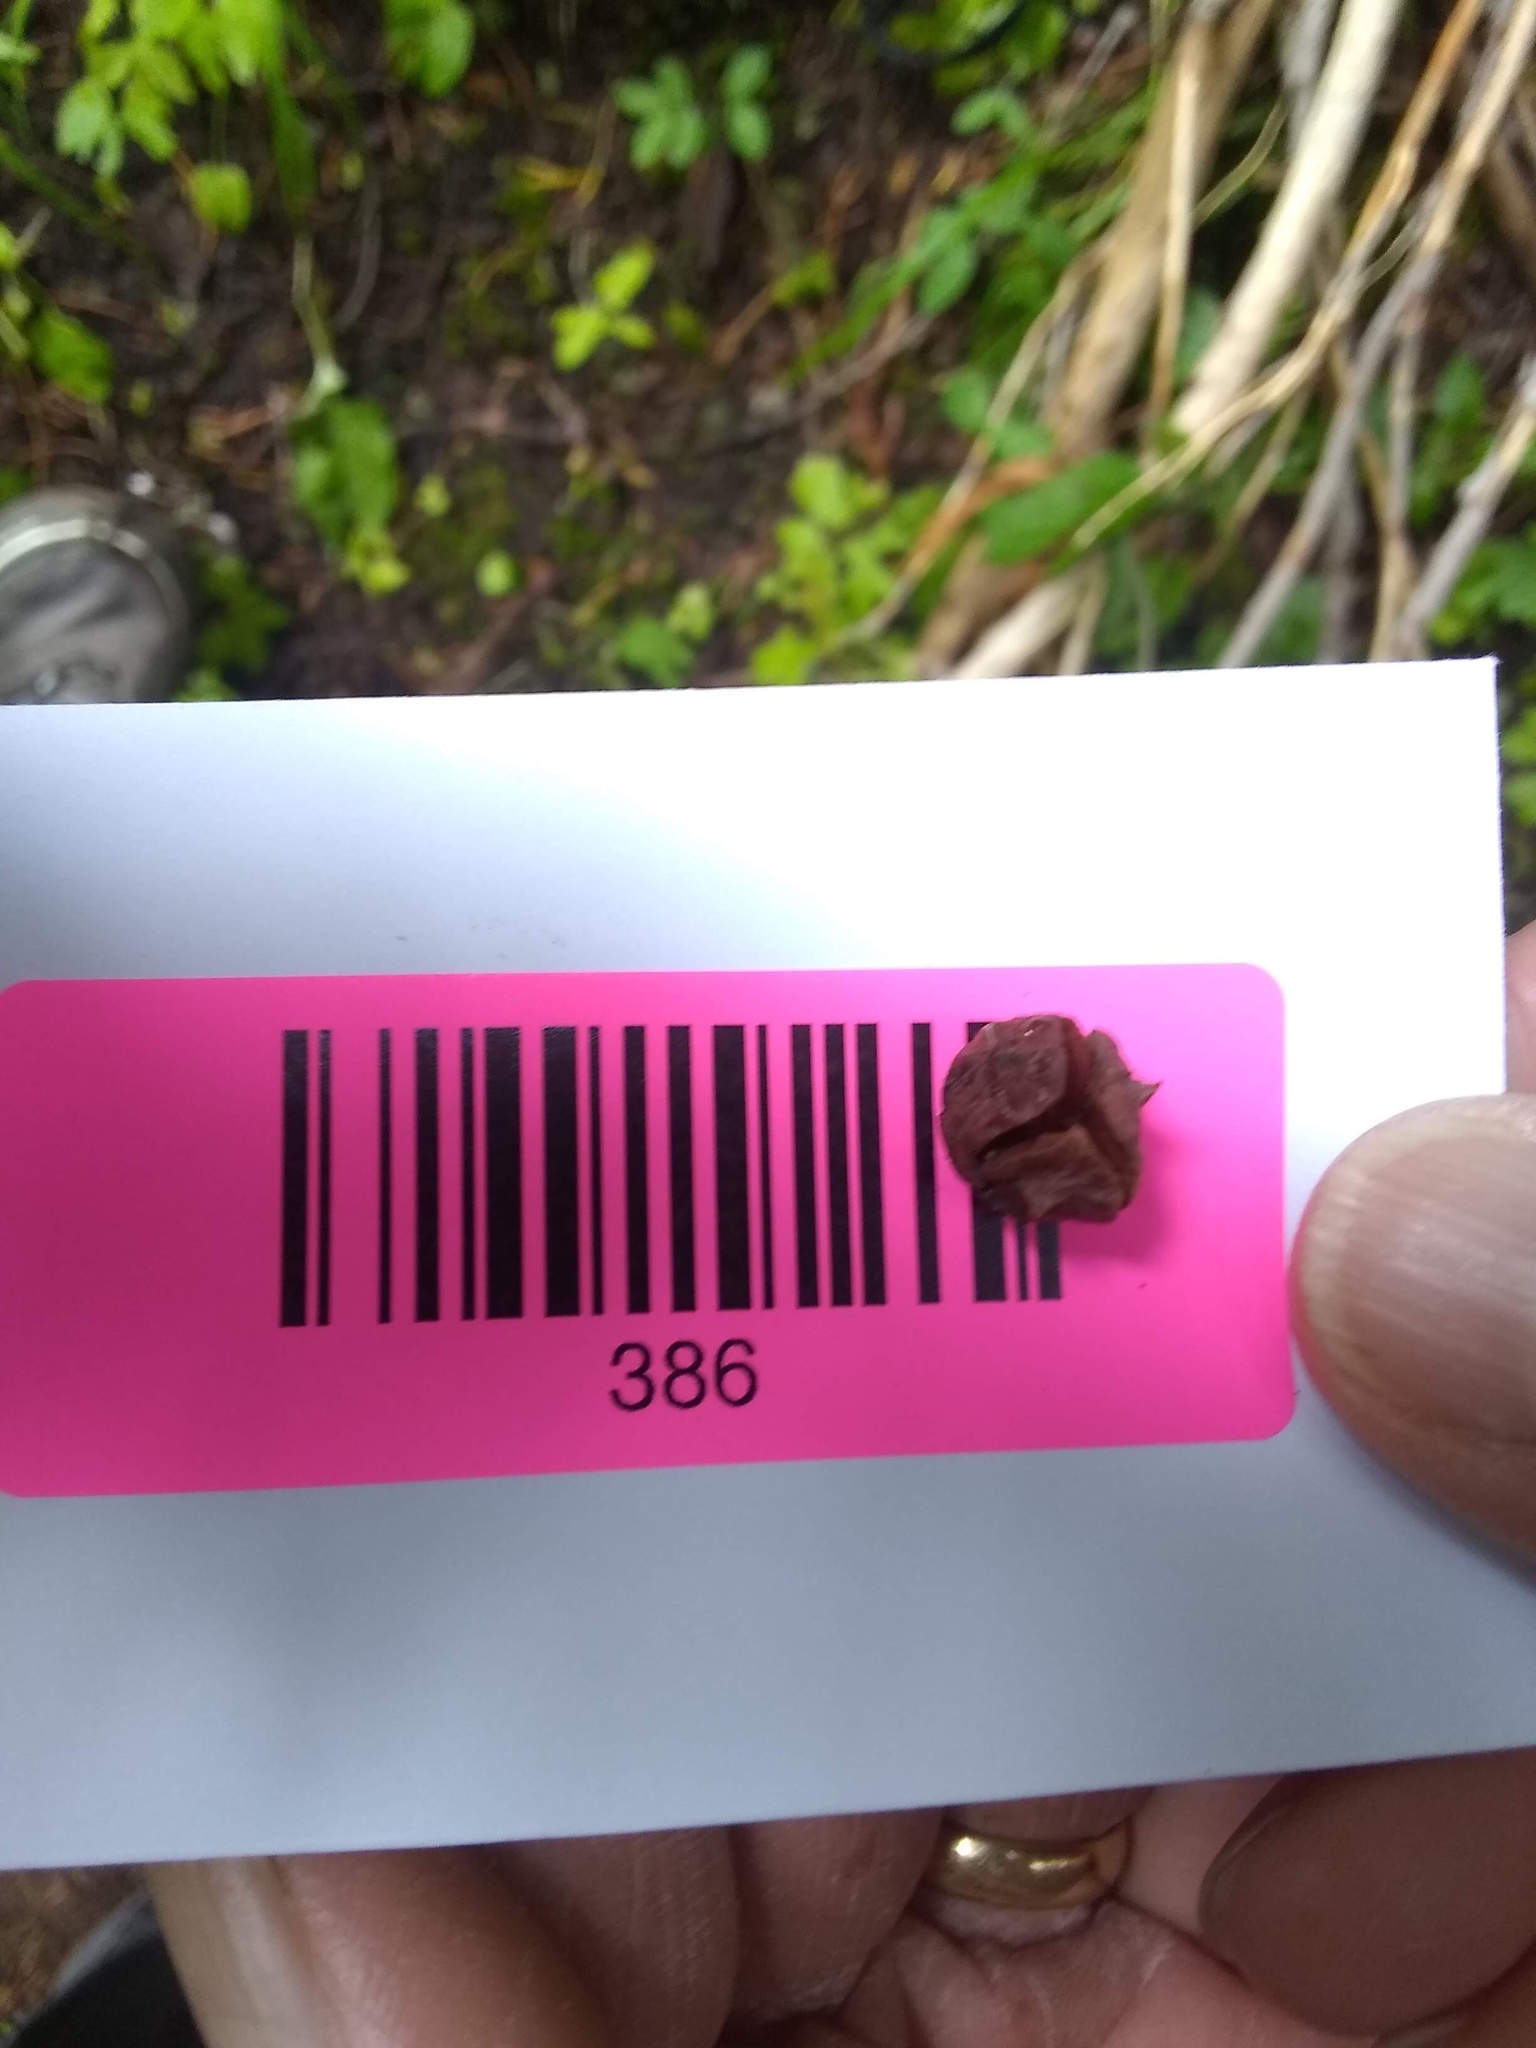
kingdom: Plantae
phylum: Tracheophyta
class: Pinopsida
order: Pinales
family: Cupressaceae
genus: Xanthocyparis
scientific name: Xanthocyparis nootkatensis
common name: Nootka cypress
